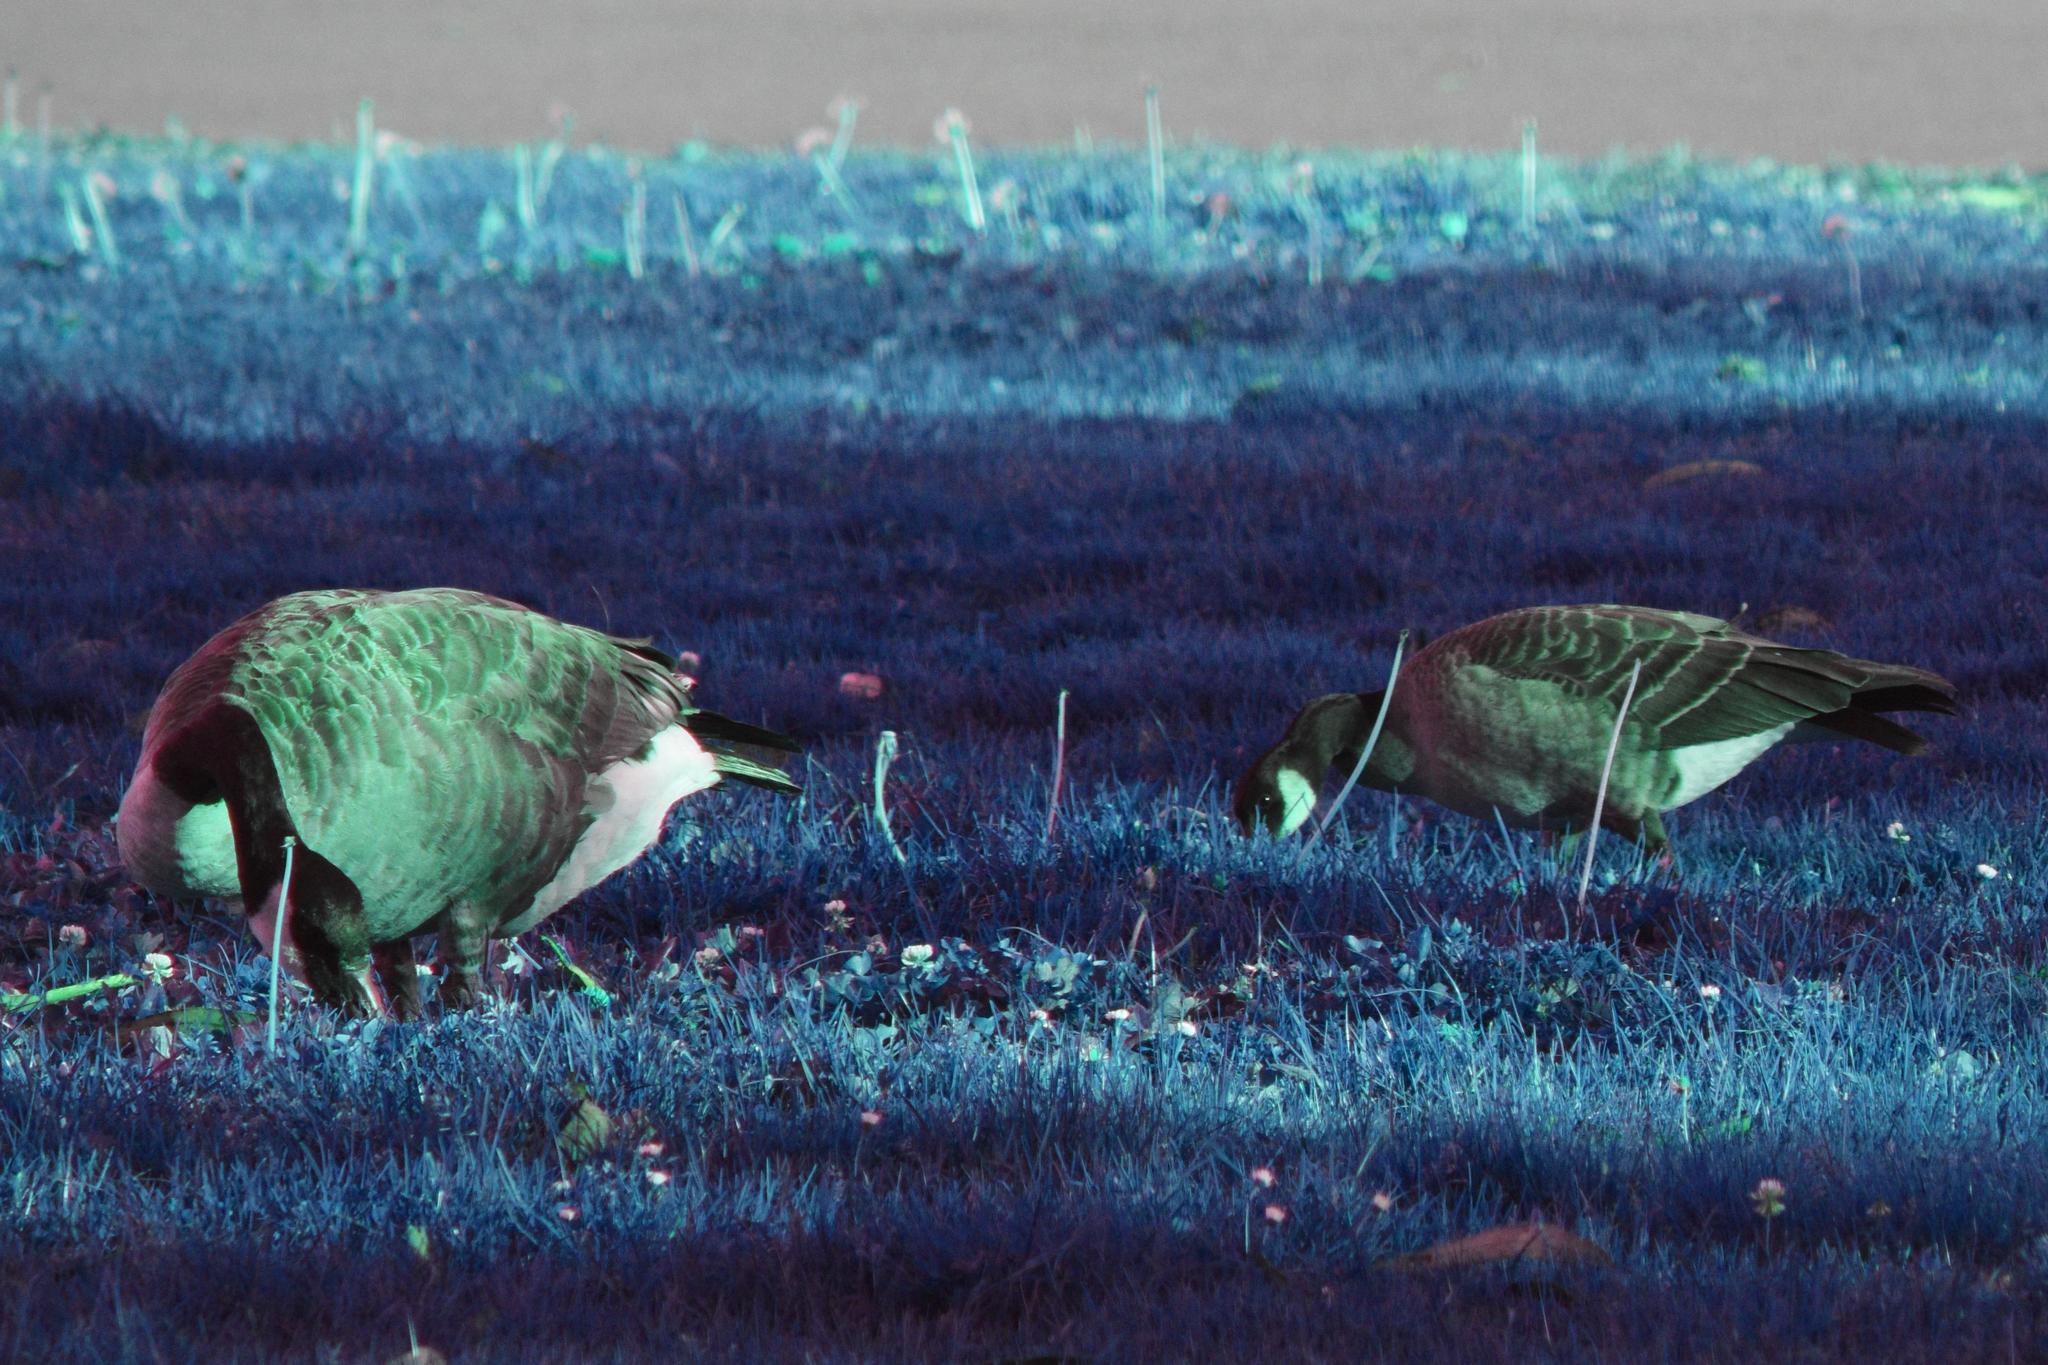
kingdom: Animalia
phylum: Chordata
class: Aves
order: Anseriformes
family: Anatidae
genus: Branta
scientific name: Branta canadensis
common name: Canada goose
